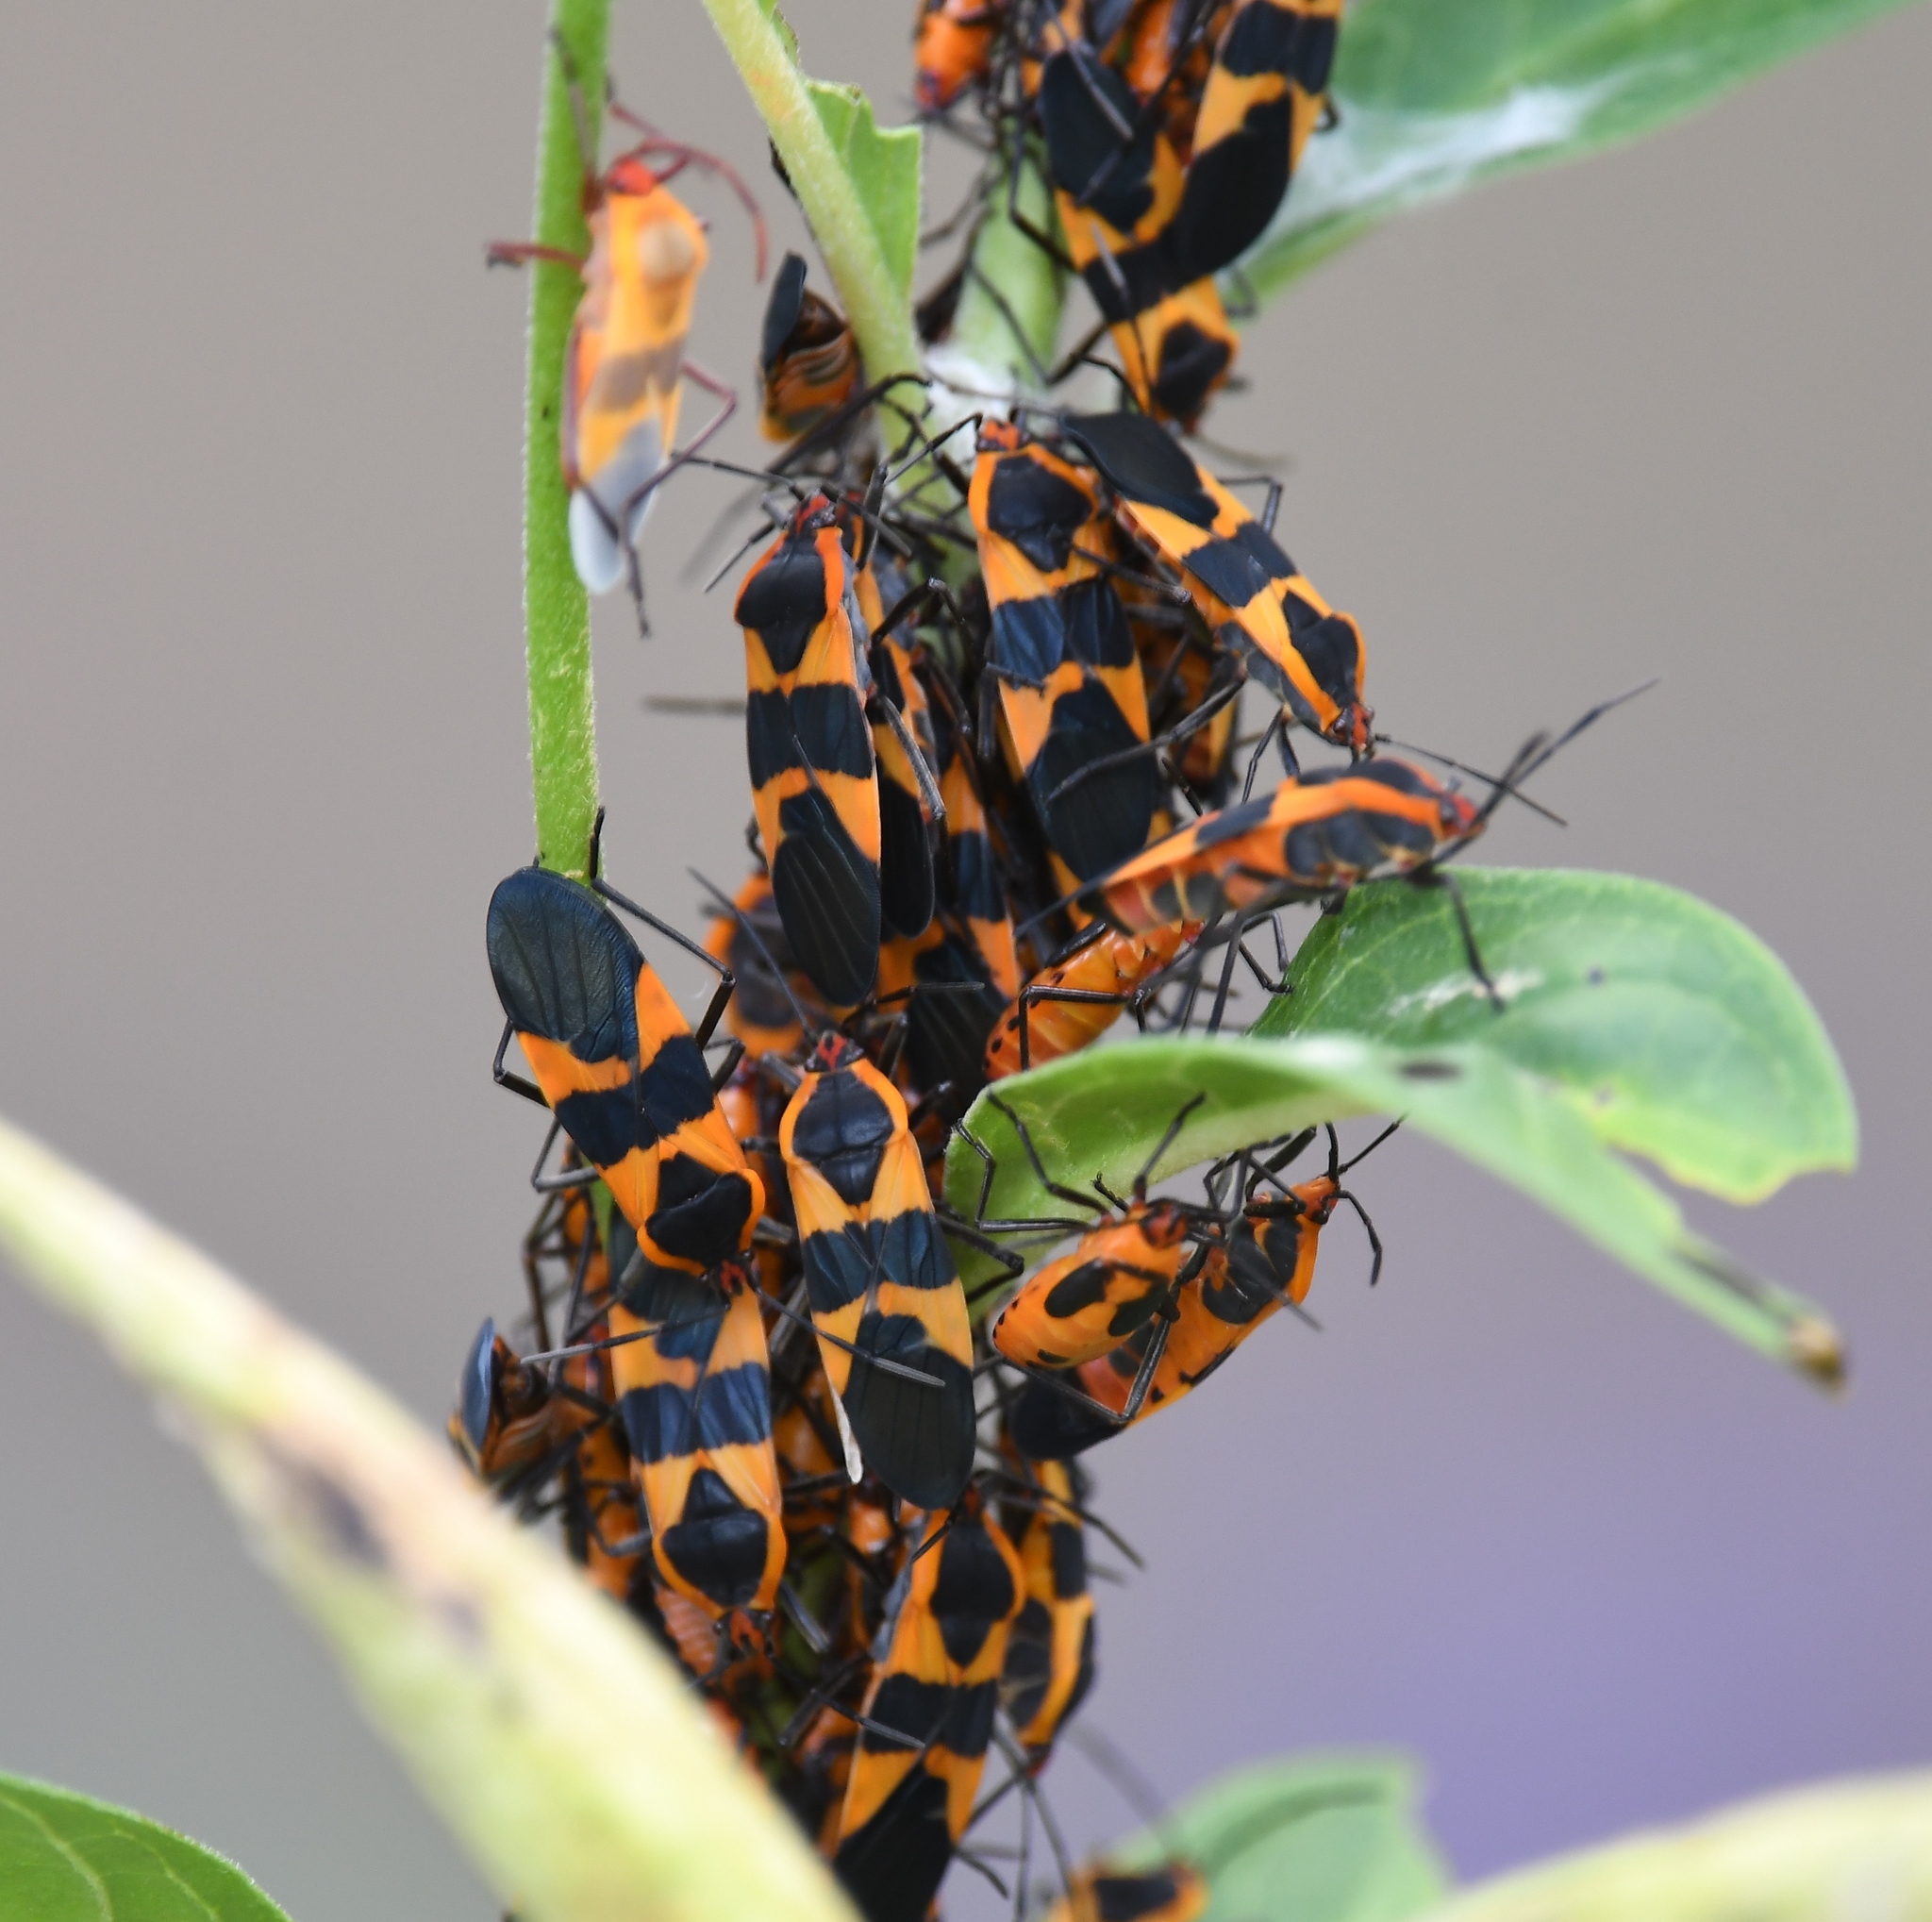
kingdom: Animalia
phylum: Arthropoda
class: Insecta
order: Hemiptera
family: Lygaeidae
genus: Oncopeltus
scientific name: Oncopeltus fasciatus
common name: Large milkweed bug
